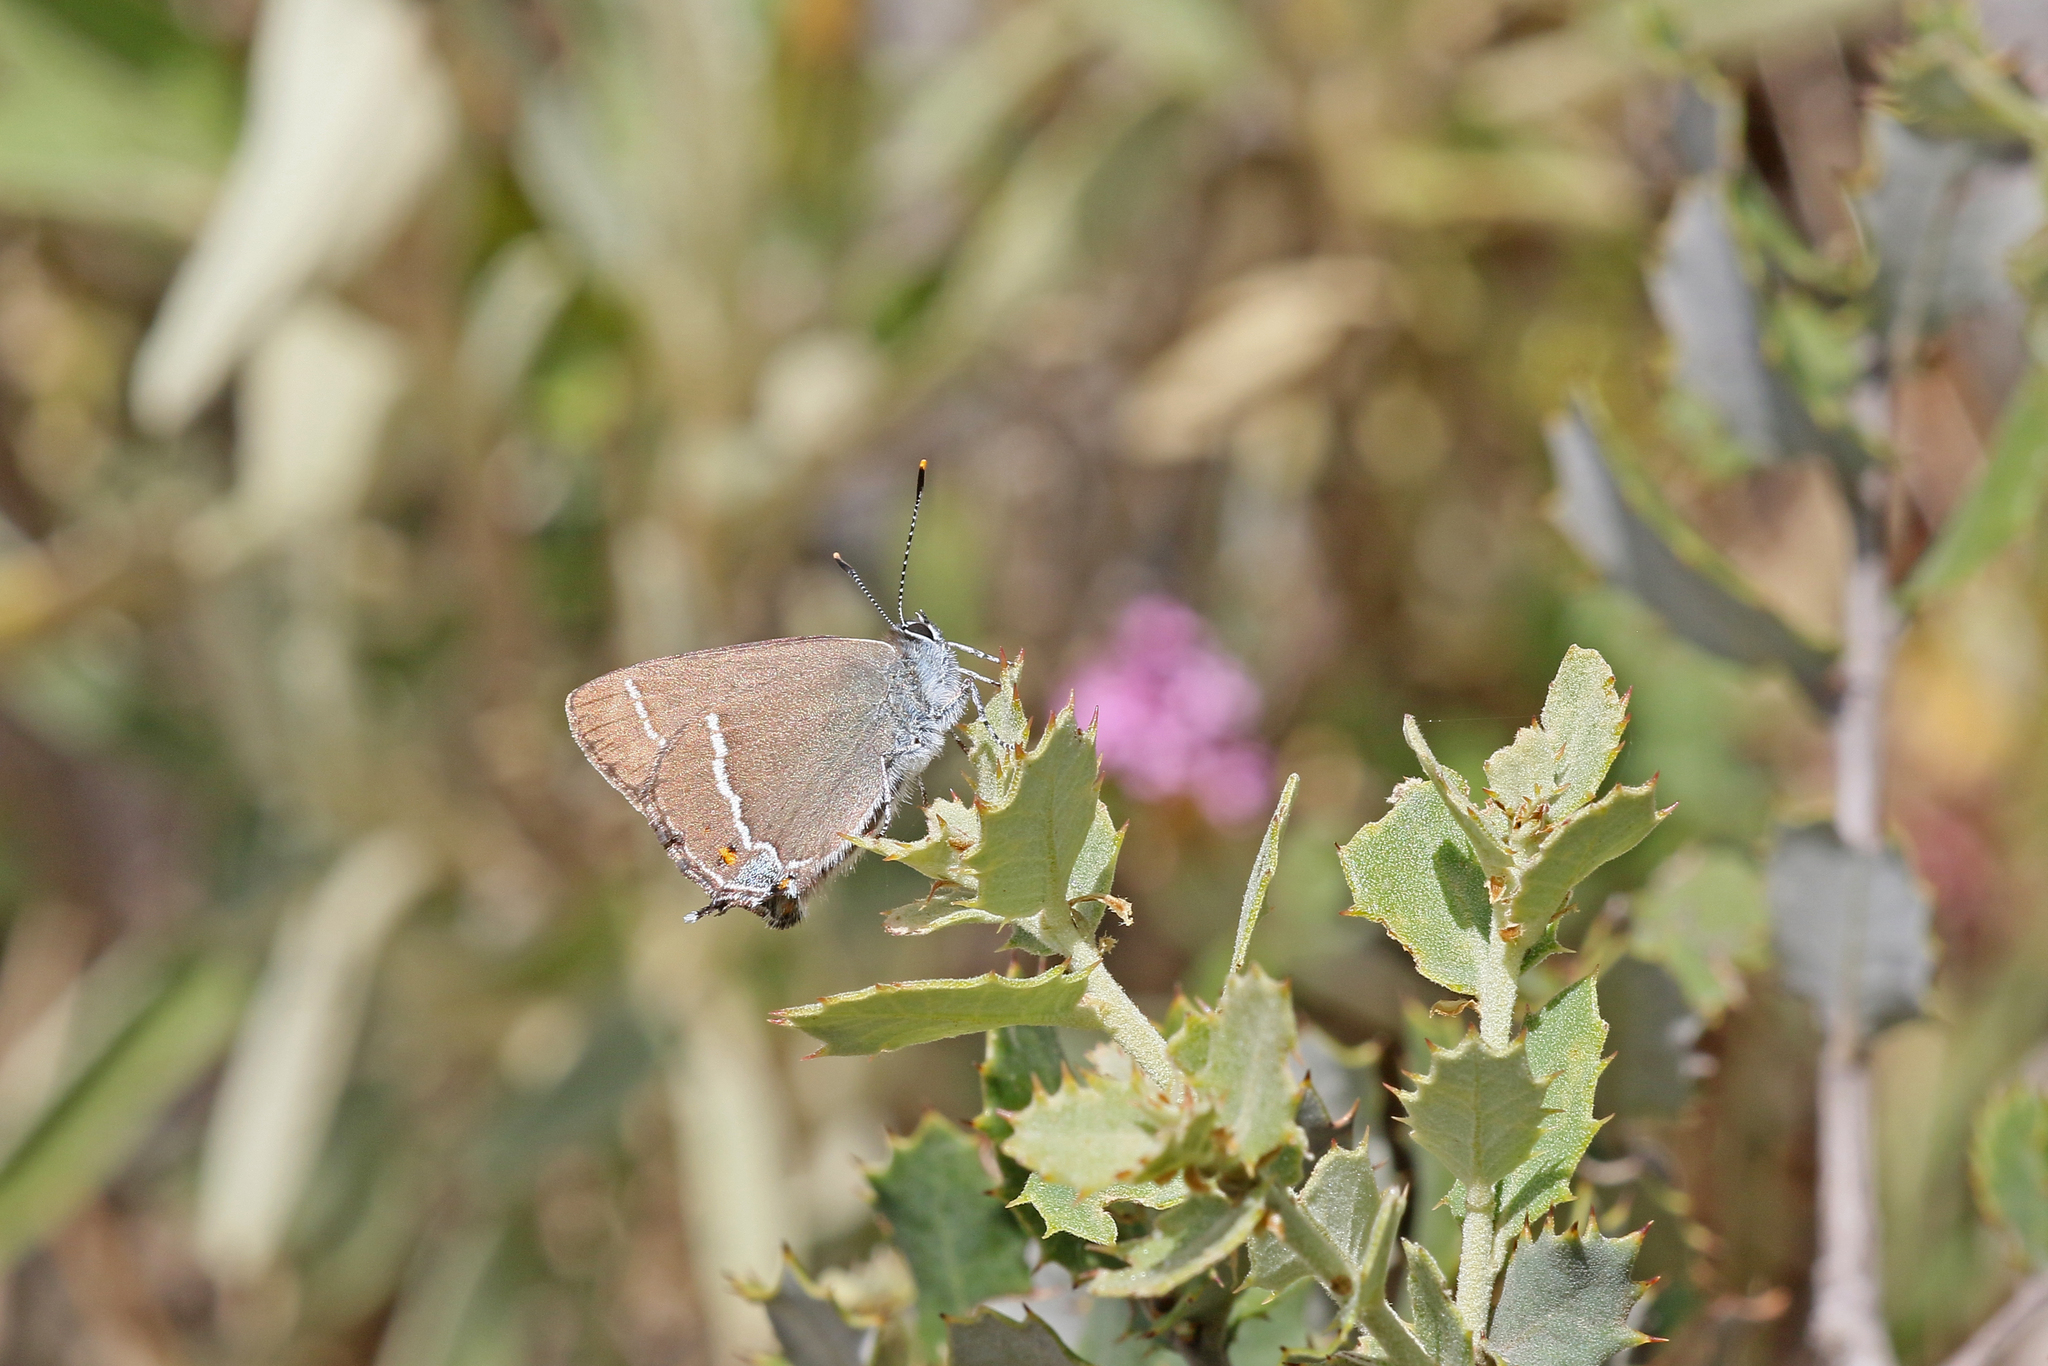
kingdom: Animalia
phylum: Arthropoda
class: Insecta
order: Lepidoptera
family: Lycaenidae
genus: Tuttiola
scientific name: Tuttiola spini
